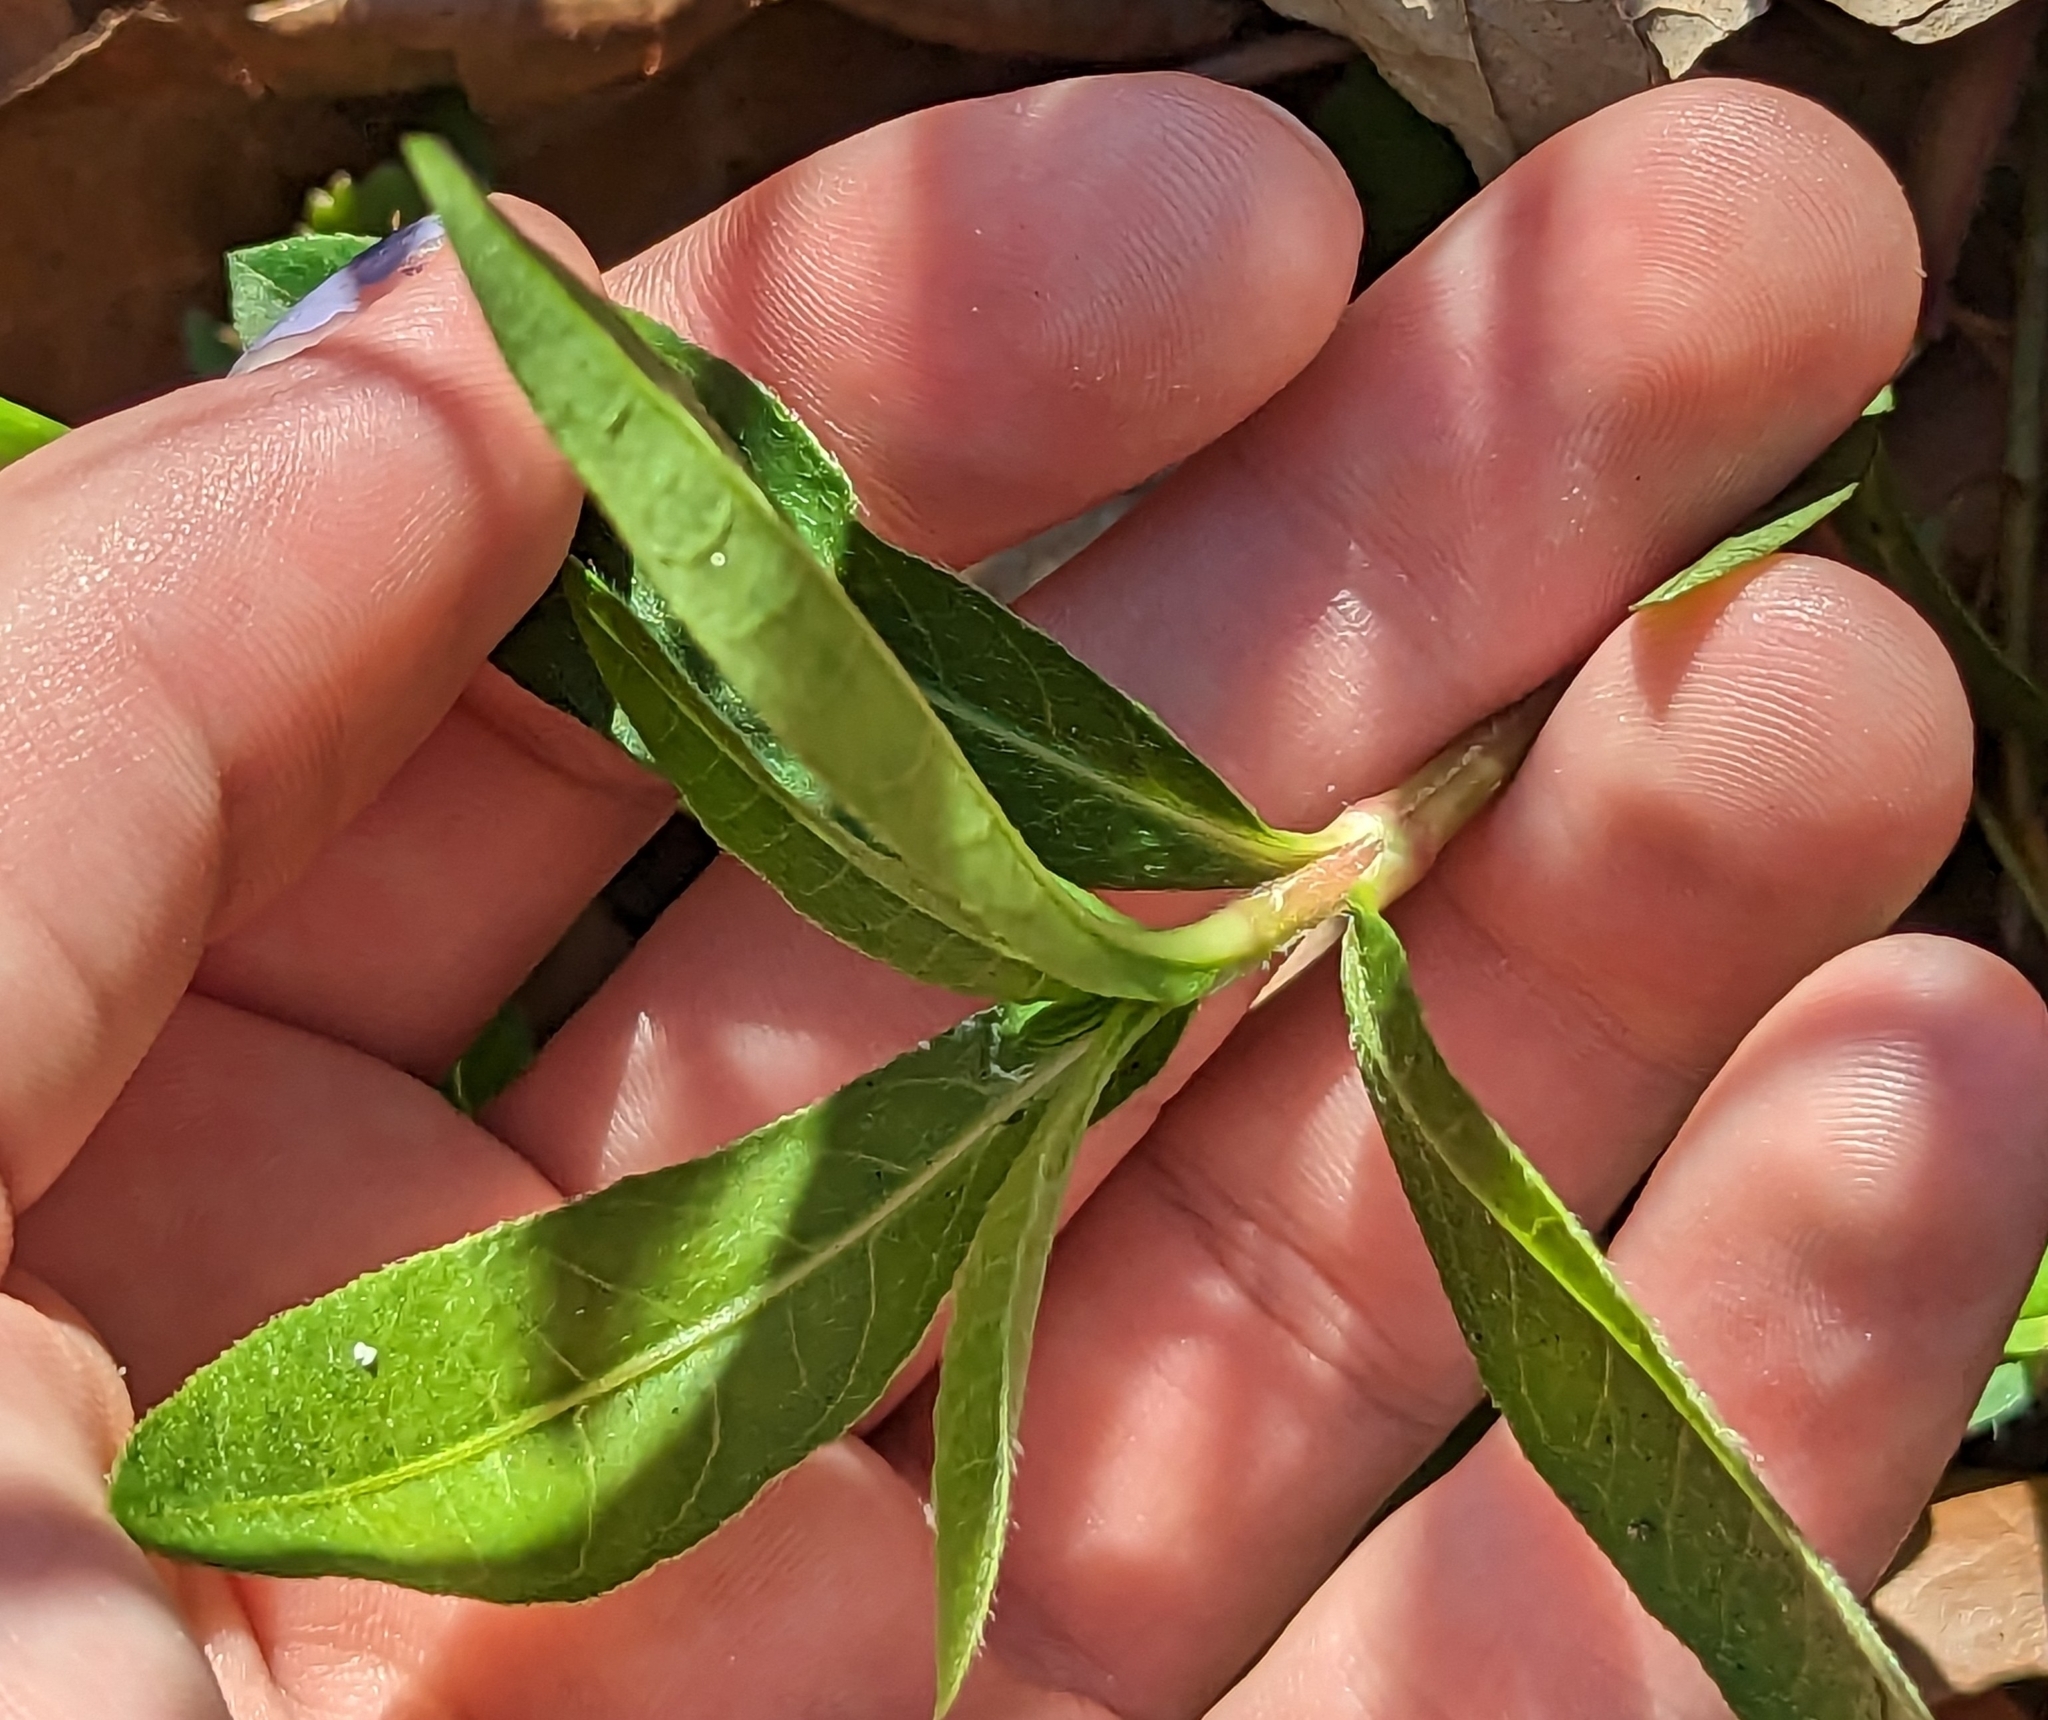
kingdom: Plantae
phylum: Tracheophyta
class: Magnoliopsida
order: Caryophyllales
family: Amaranthaceae
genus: Alternanthera
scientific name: Alternanthera philoxeroides
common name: Alligatorweed
